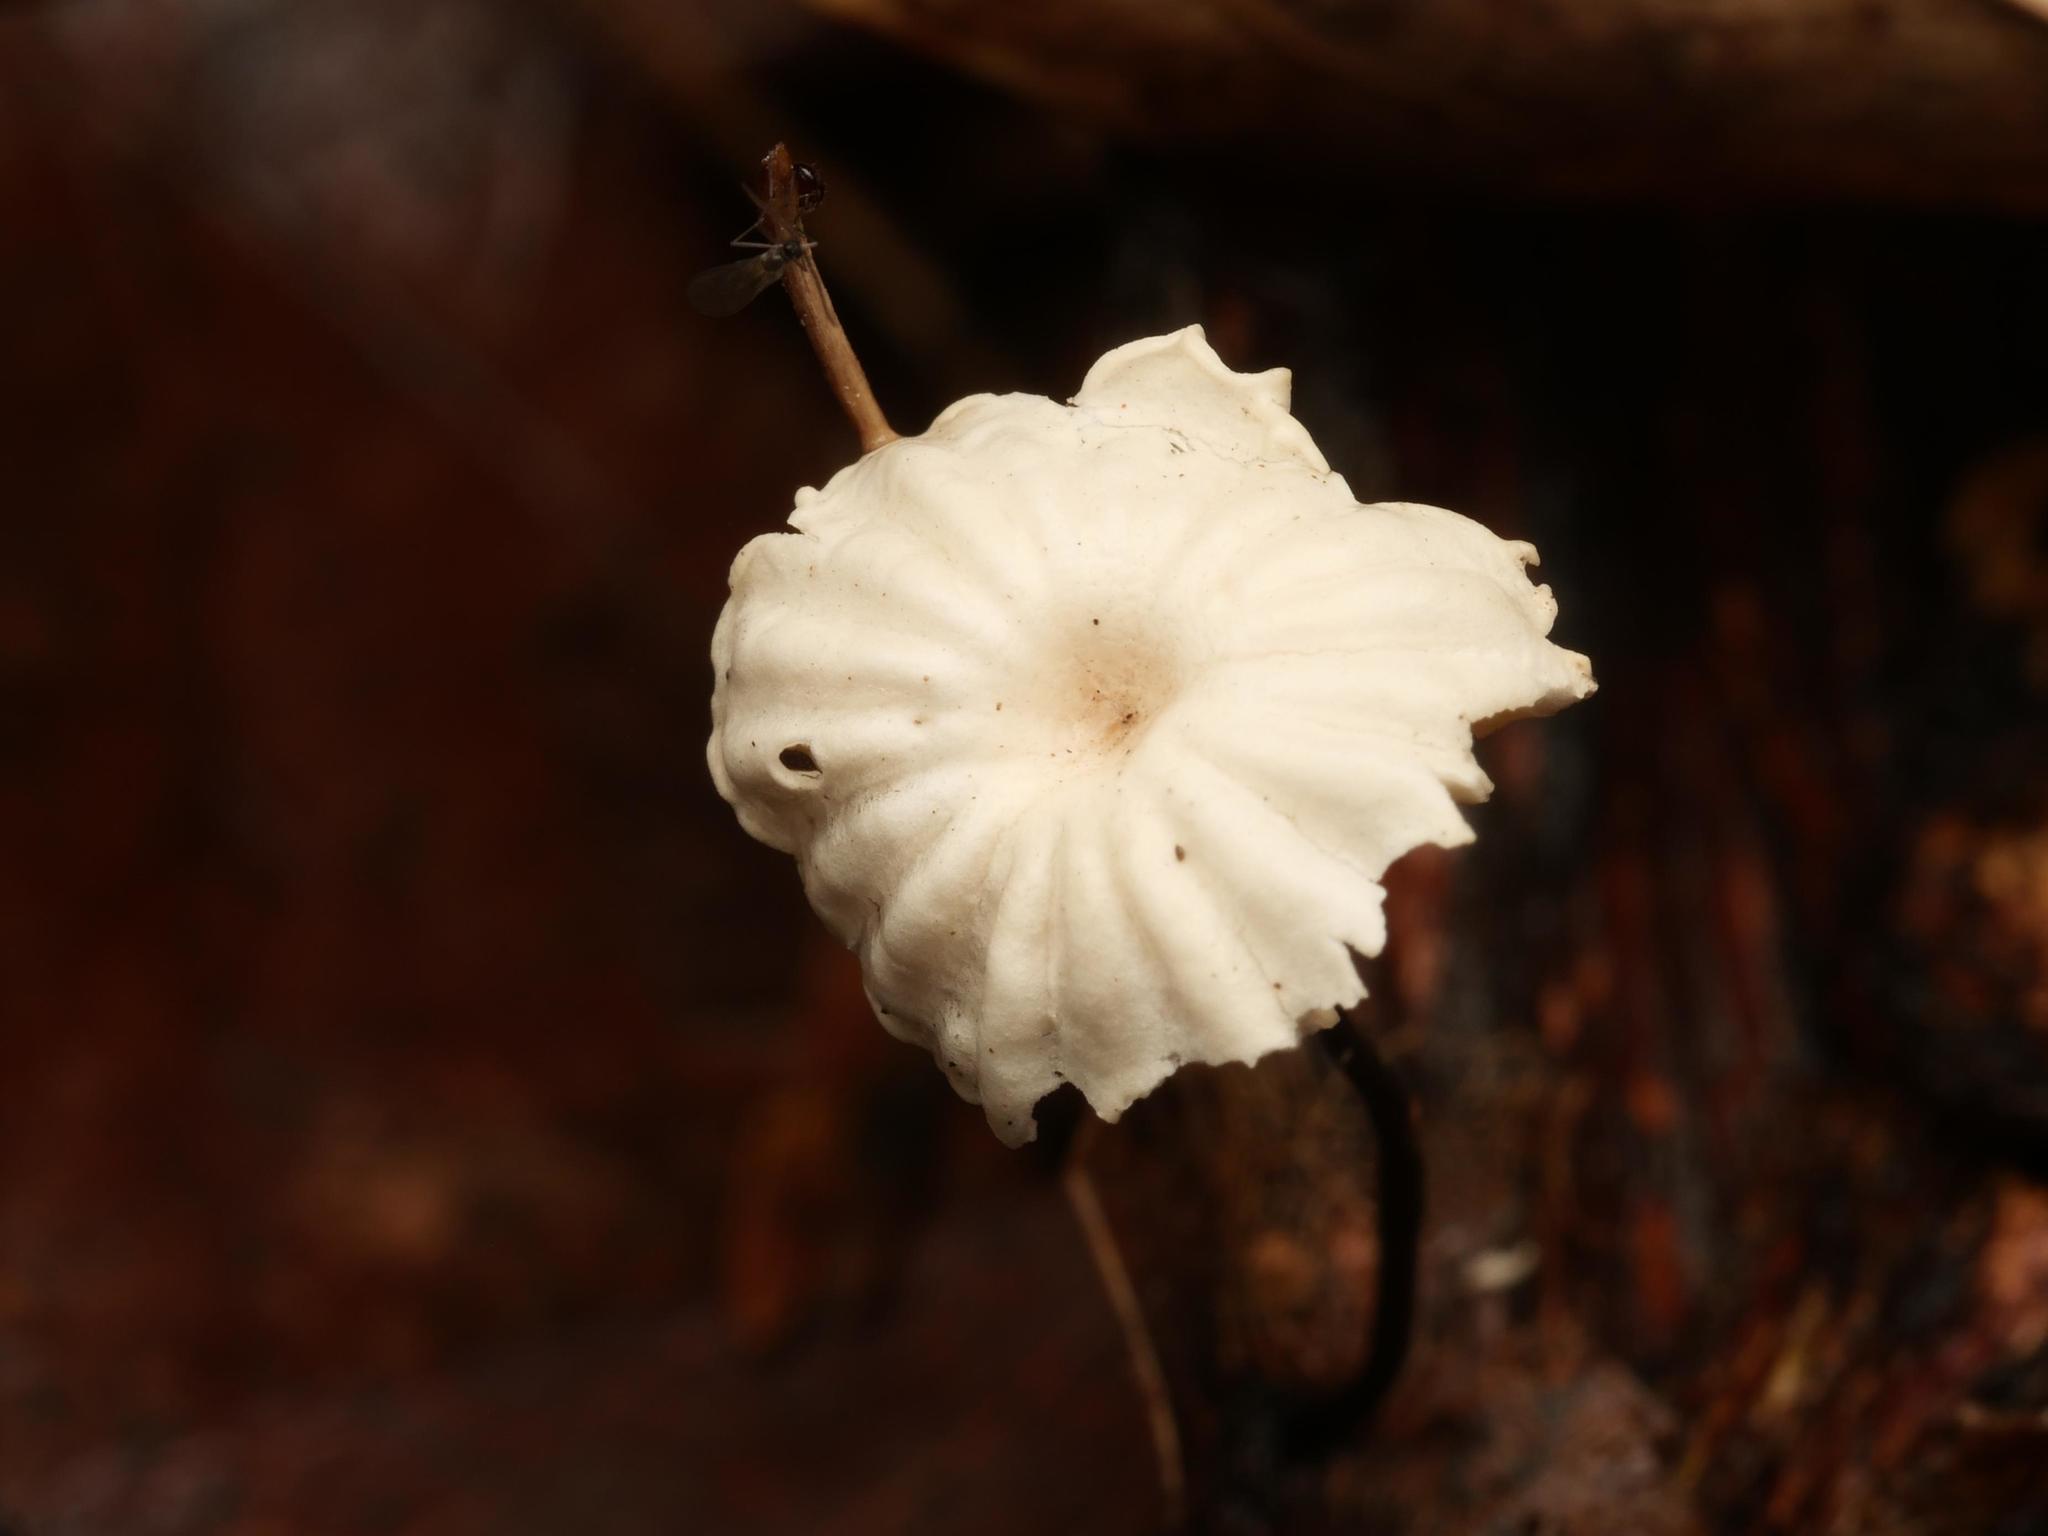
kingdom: Fungi
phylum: Basidiomycota
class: Agaricomycetes
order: Agaricales
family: Marasmiaceae
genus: Marasmius
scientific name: Marasmius rotula
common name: Collared parachute
